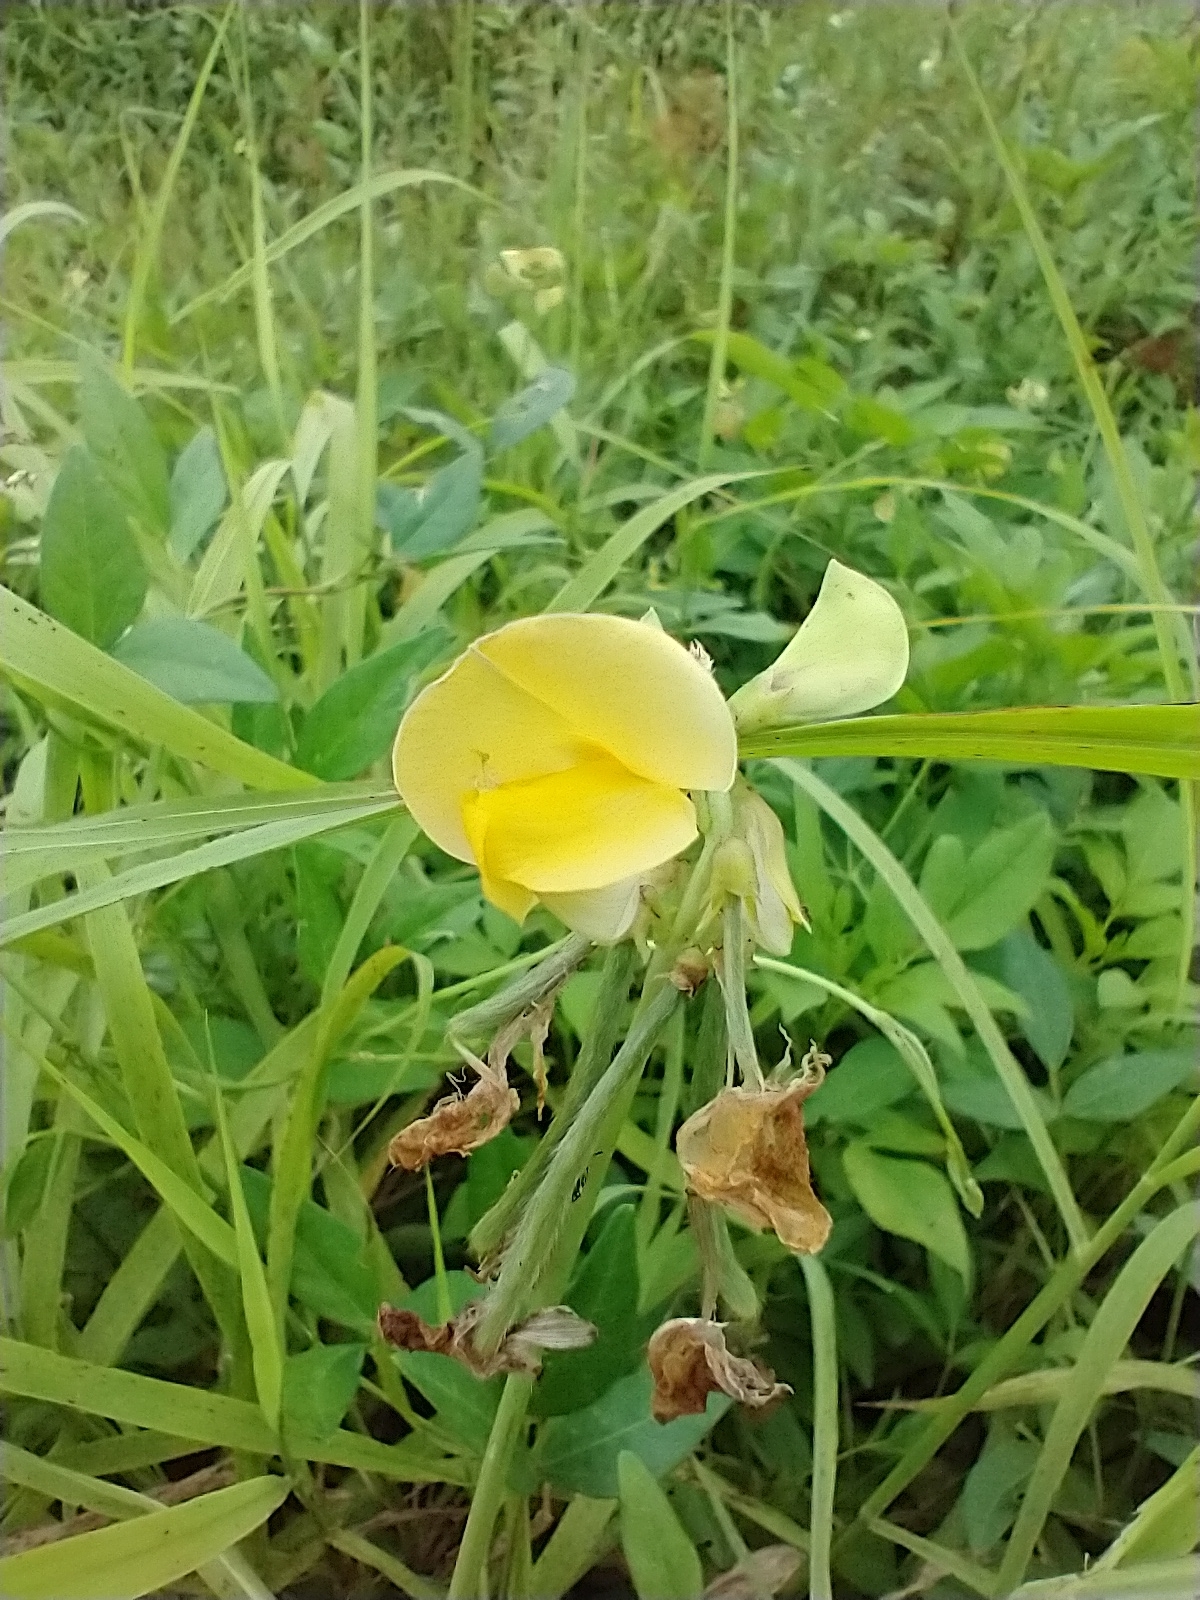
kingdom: Plantae
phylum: Tracheophyta
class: Magnoliopsida
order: Fabales
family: Fabaceae
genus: Vigna
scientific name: Vigna luteola
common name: Hairypod cowpea
